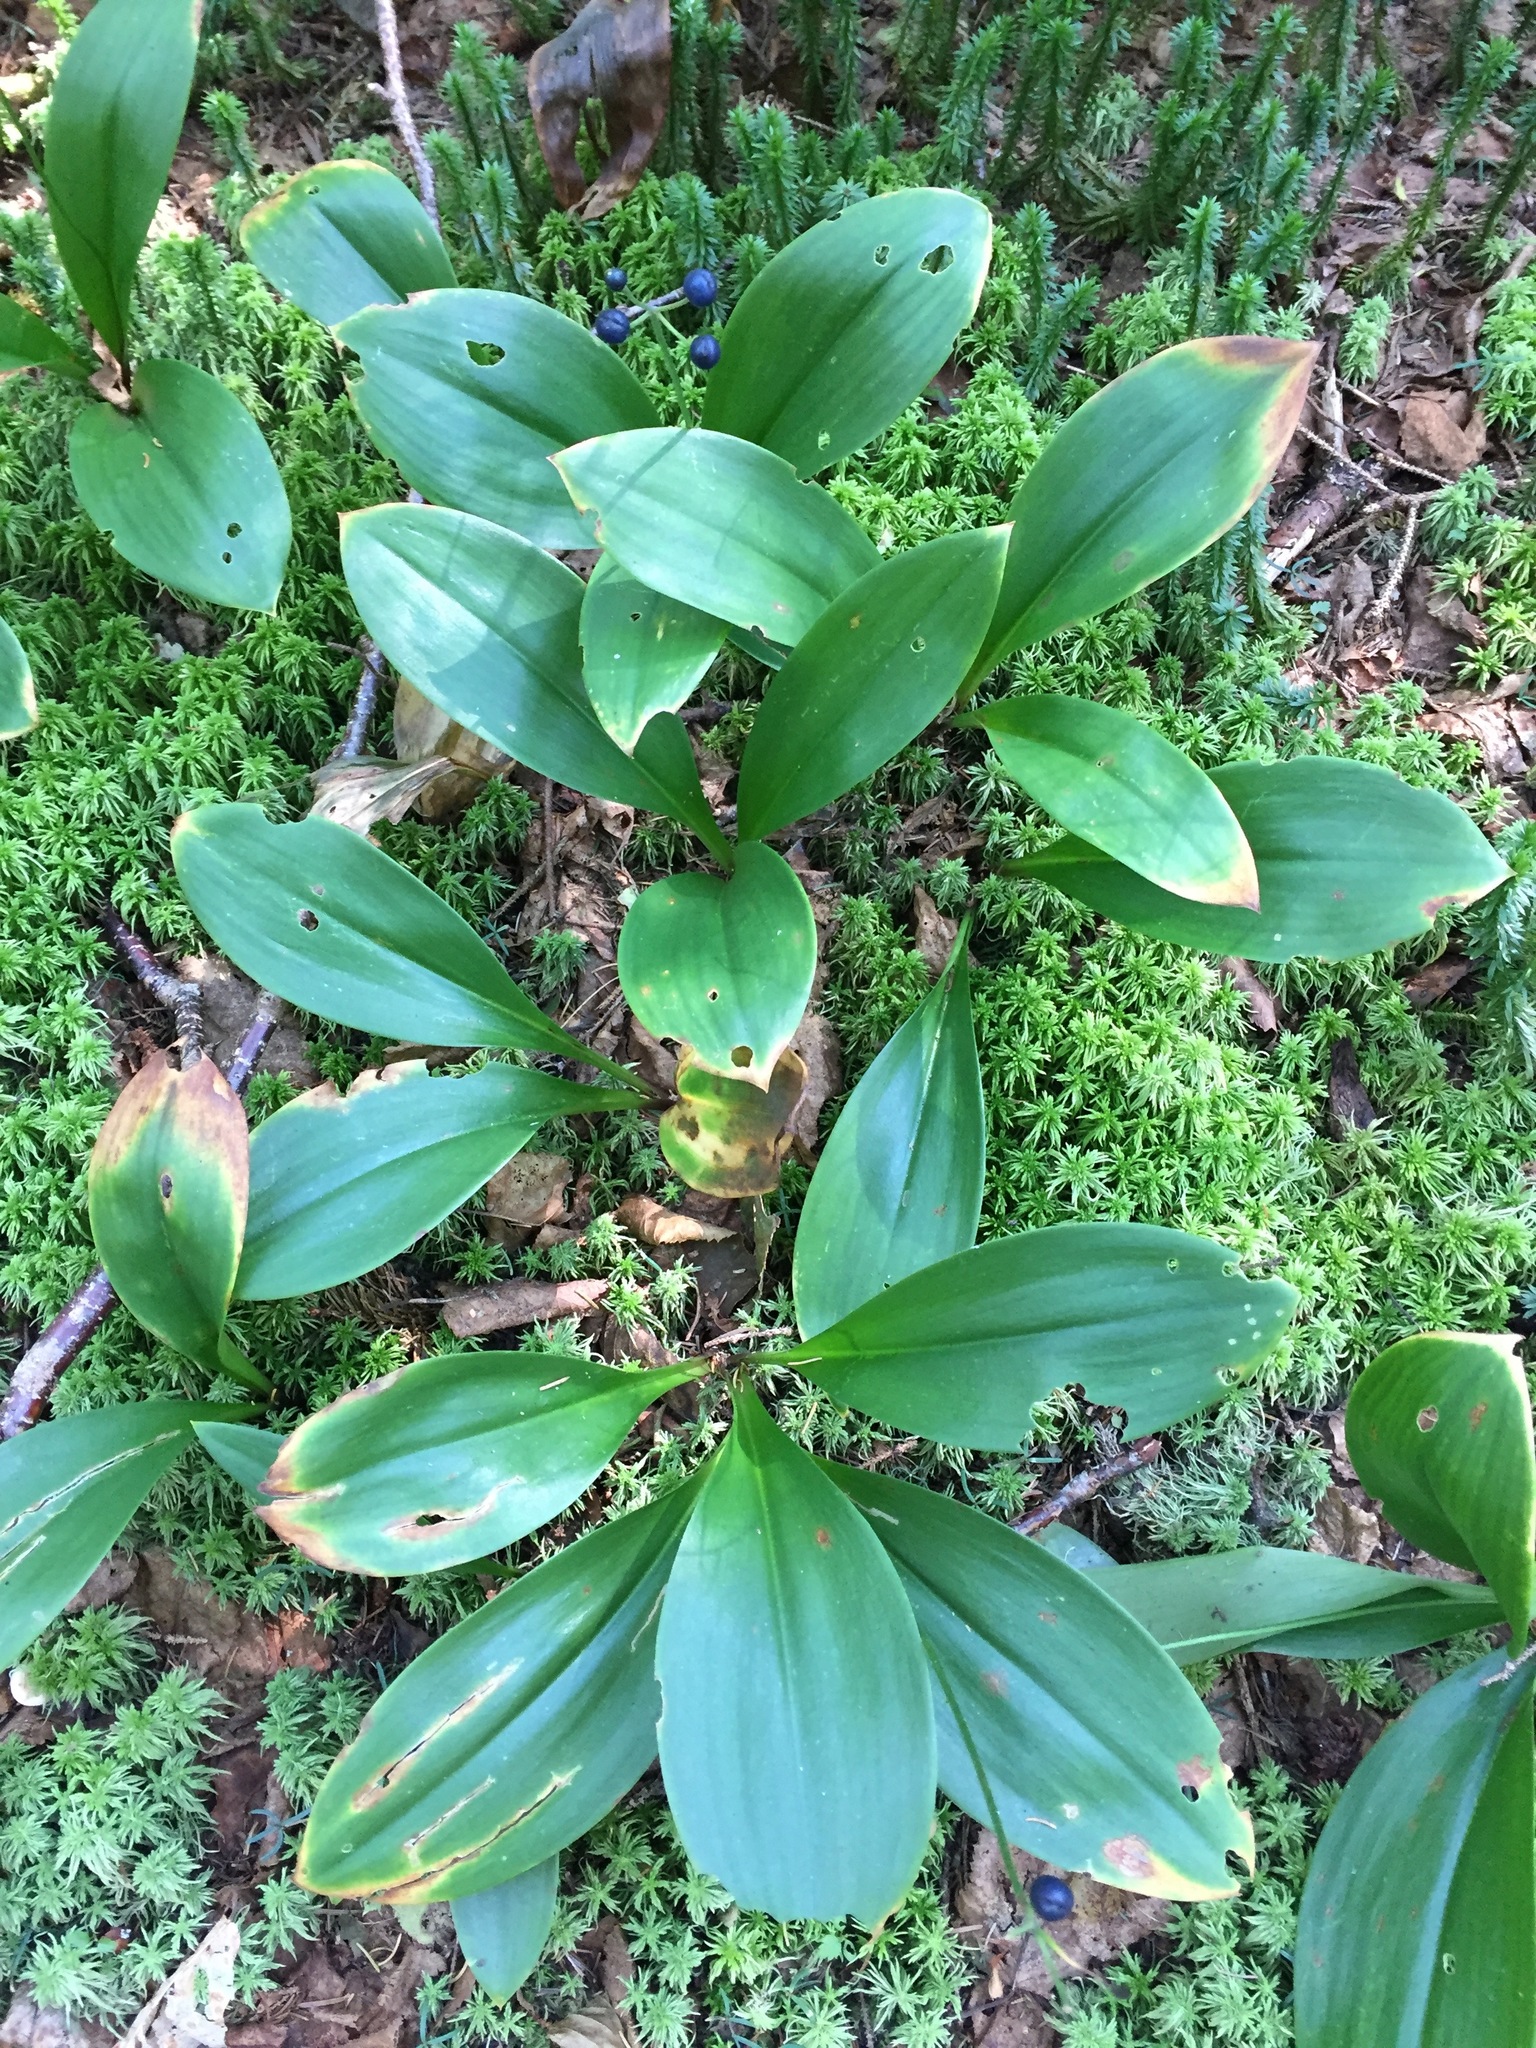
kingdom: Plantae
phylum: Tracheophyta
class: Liliopsida
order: Liliales
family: Liliaceae
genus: Clintonia
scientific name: Clintonia borealis
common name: Yellow clintonia
